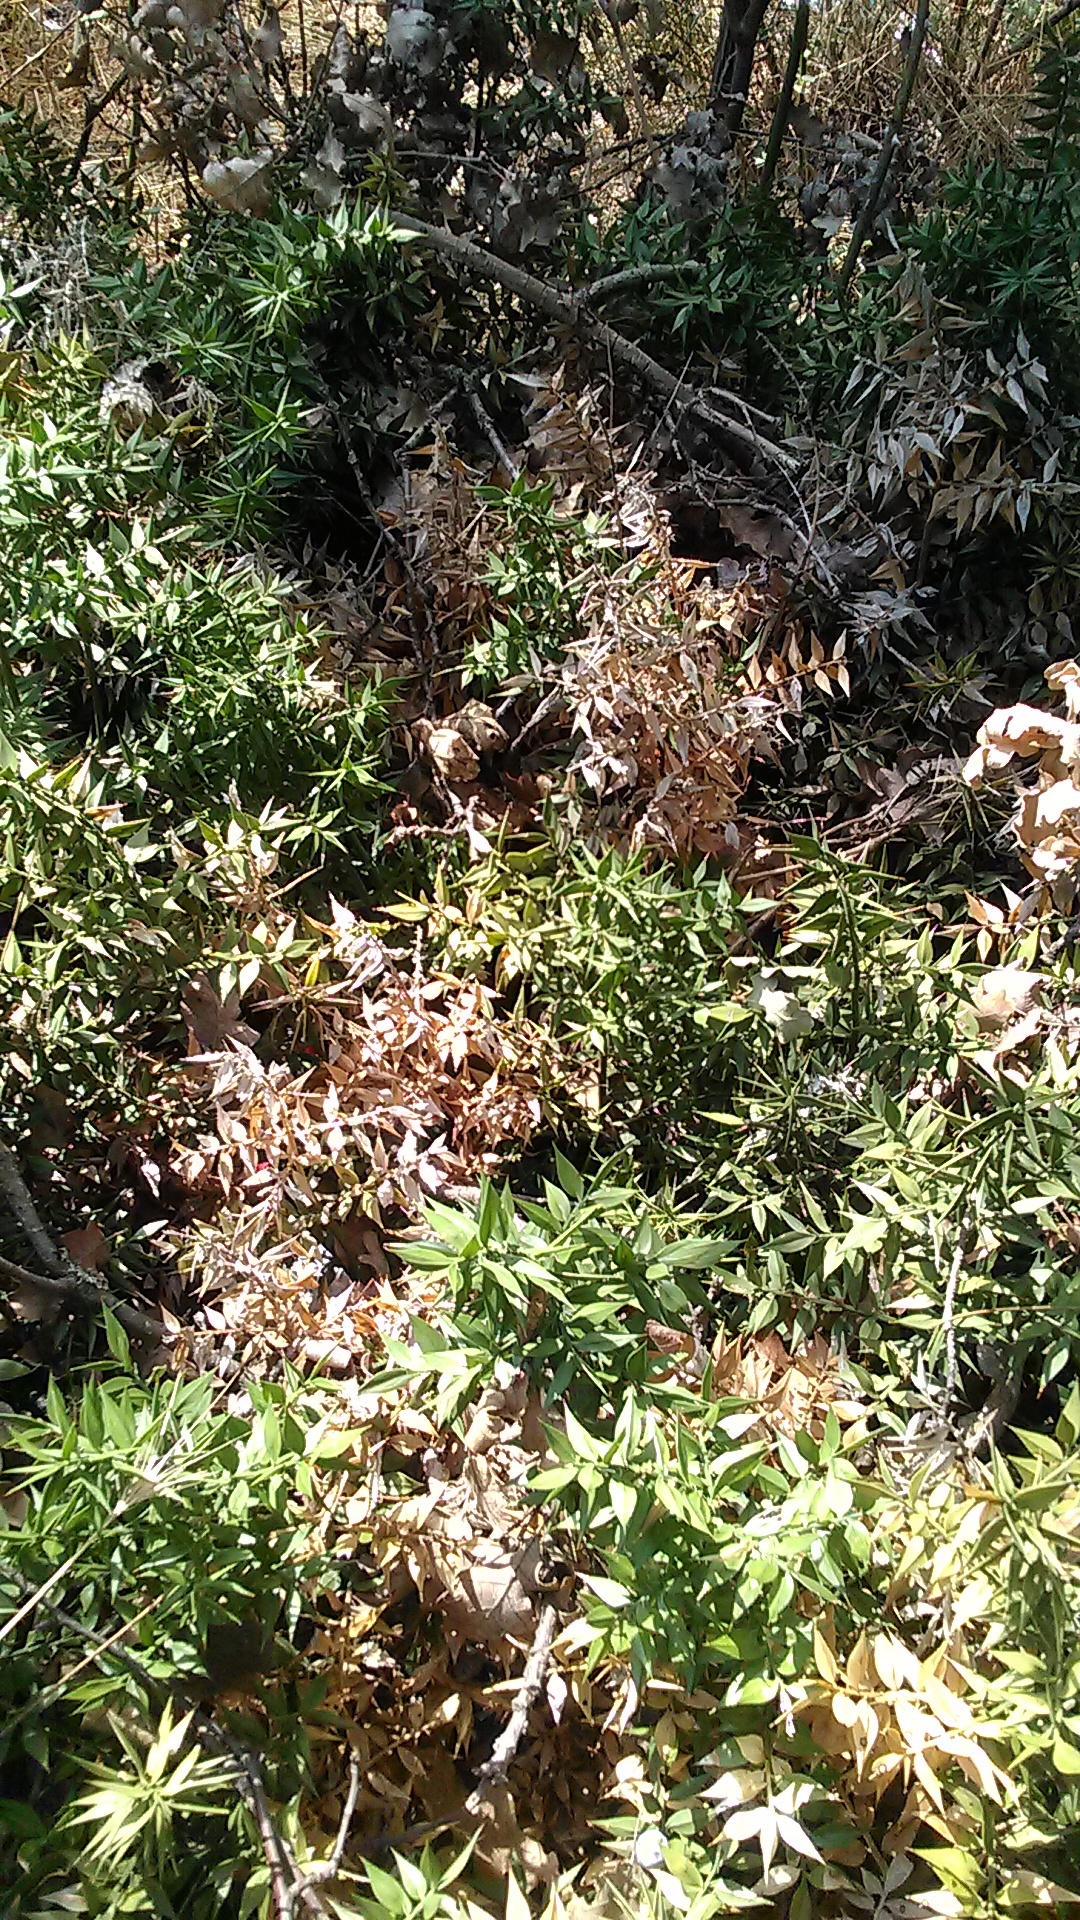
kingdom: Plantae
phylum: Tracheophyta
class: Liliopsida
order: Asparagales
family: Asparagaceae
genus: Ruscus
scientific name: Ruscus aculeatus
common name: Butcher's-broom
